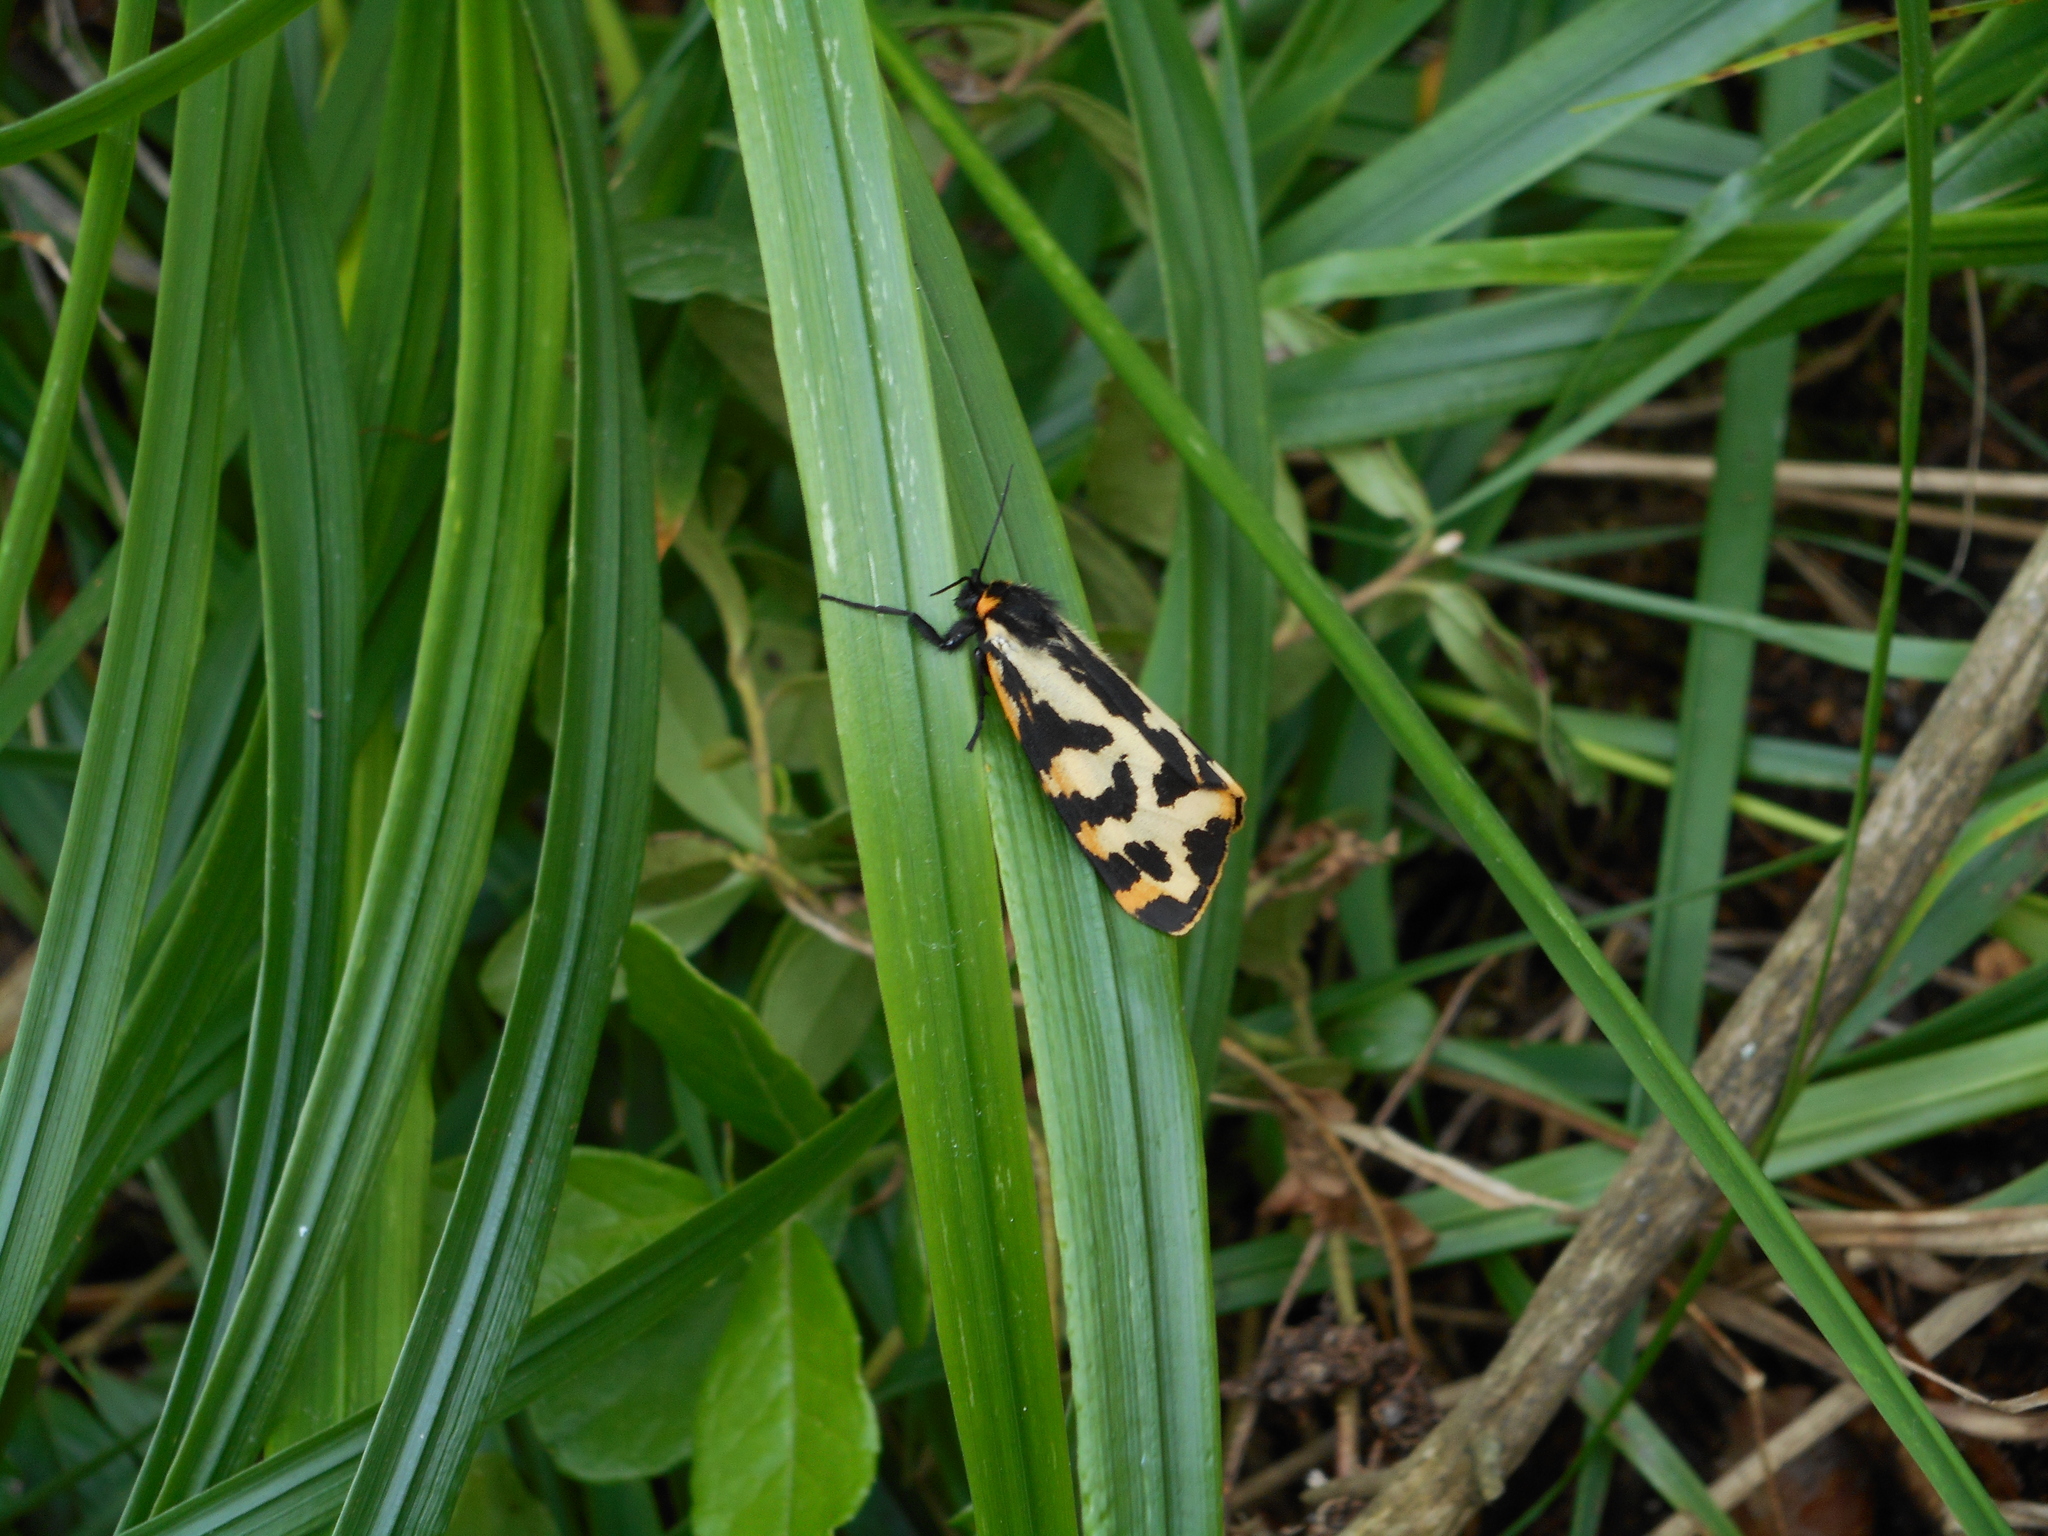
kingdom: Animalia
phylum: Arthropoda
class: Insecta
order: Lepidoptera
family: Erebidae
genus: Parasemia
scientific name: Parasemia plantaginis
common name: Wood tiger
